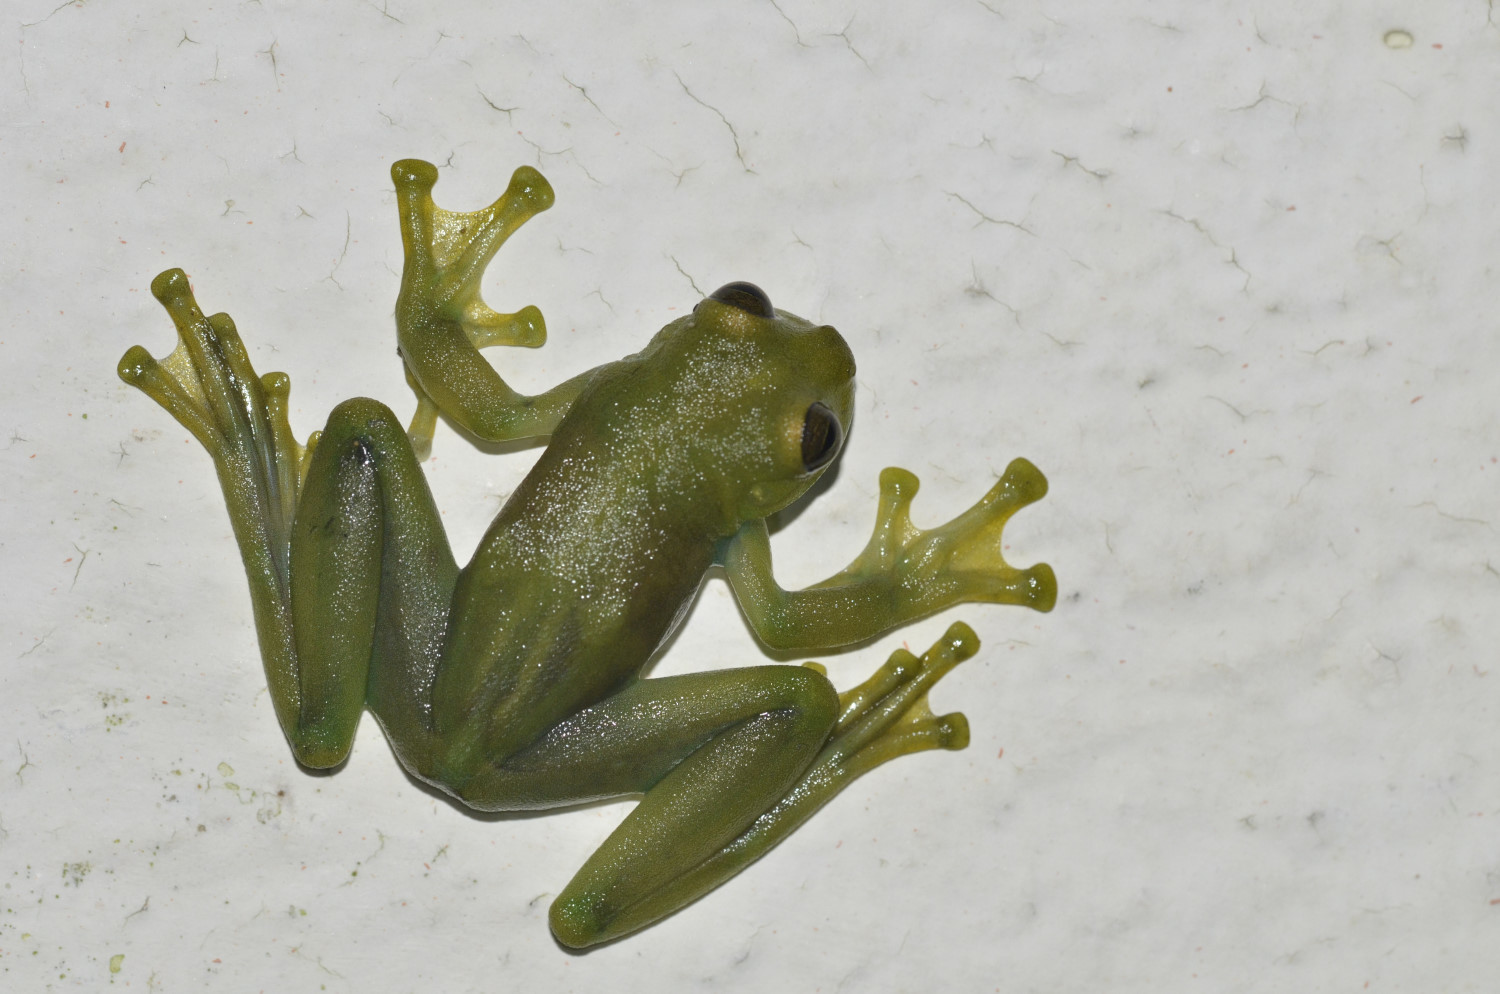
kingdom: Animalia
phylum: Chordata
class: Amphibia
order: Anura
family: Centrolenidae
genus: Sachatamia
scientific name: Sachatamia orejuela
